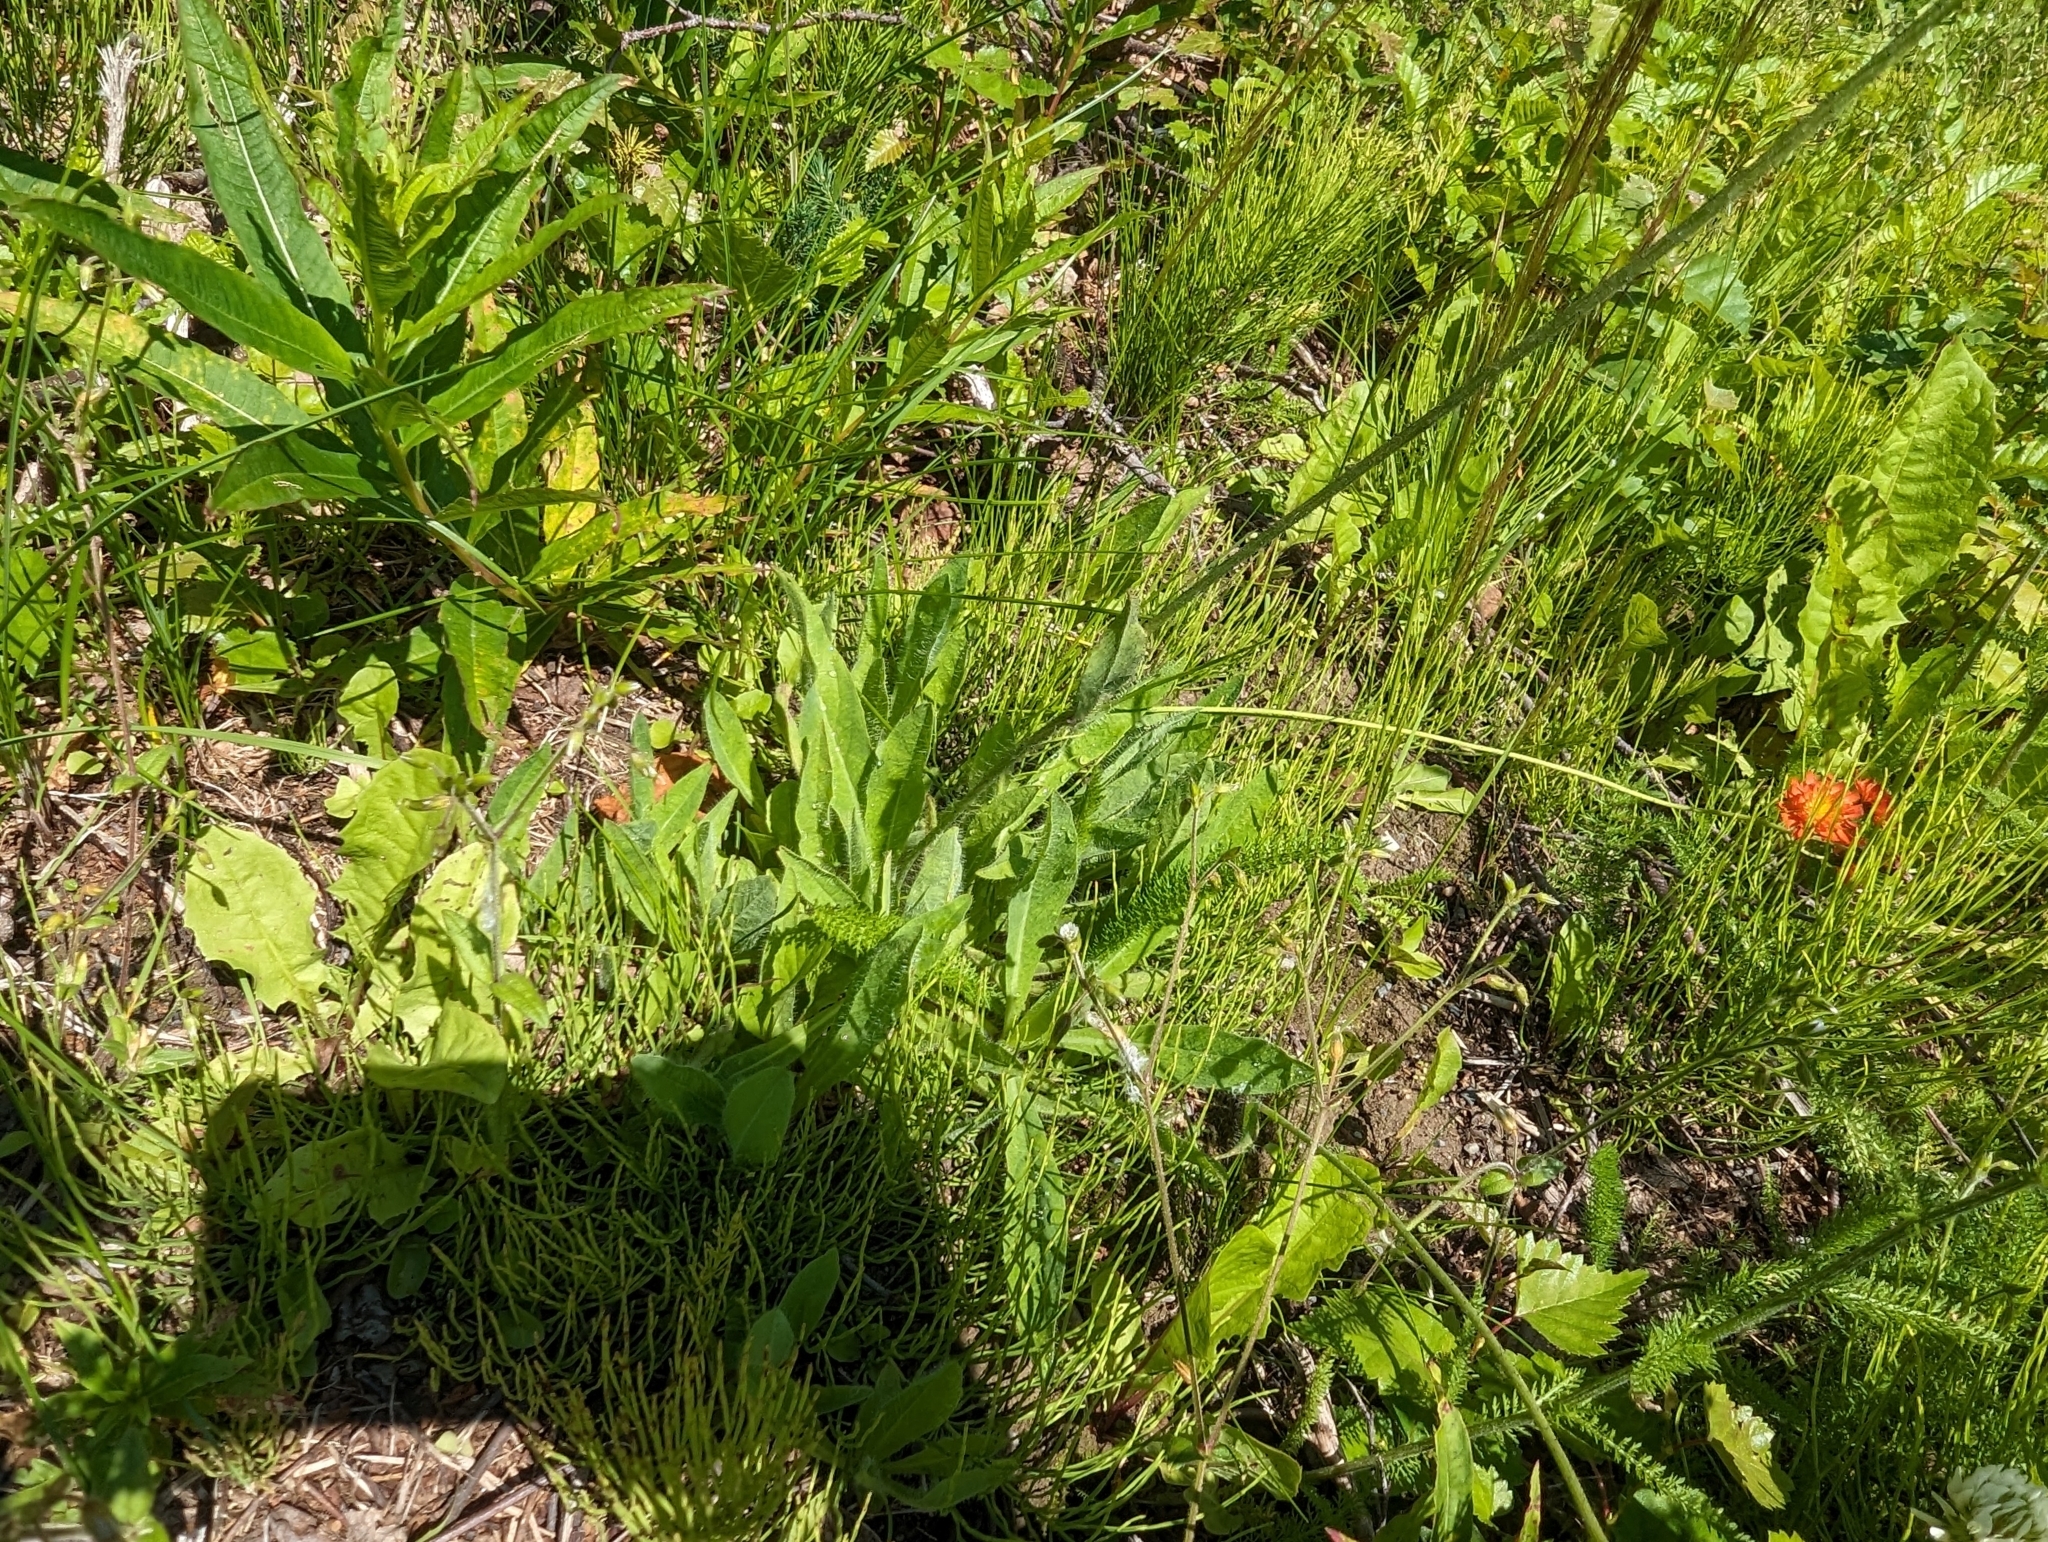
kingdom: Plantae
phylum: Tracheophyta
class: Magnoliopsida
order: Asterales
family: Asteraceae
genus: Pilosella
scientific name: Pilosella aurantiaca
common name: Fox-and-cubs
